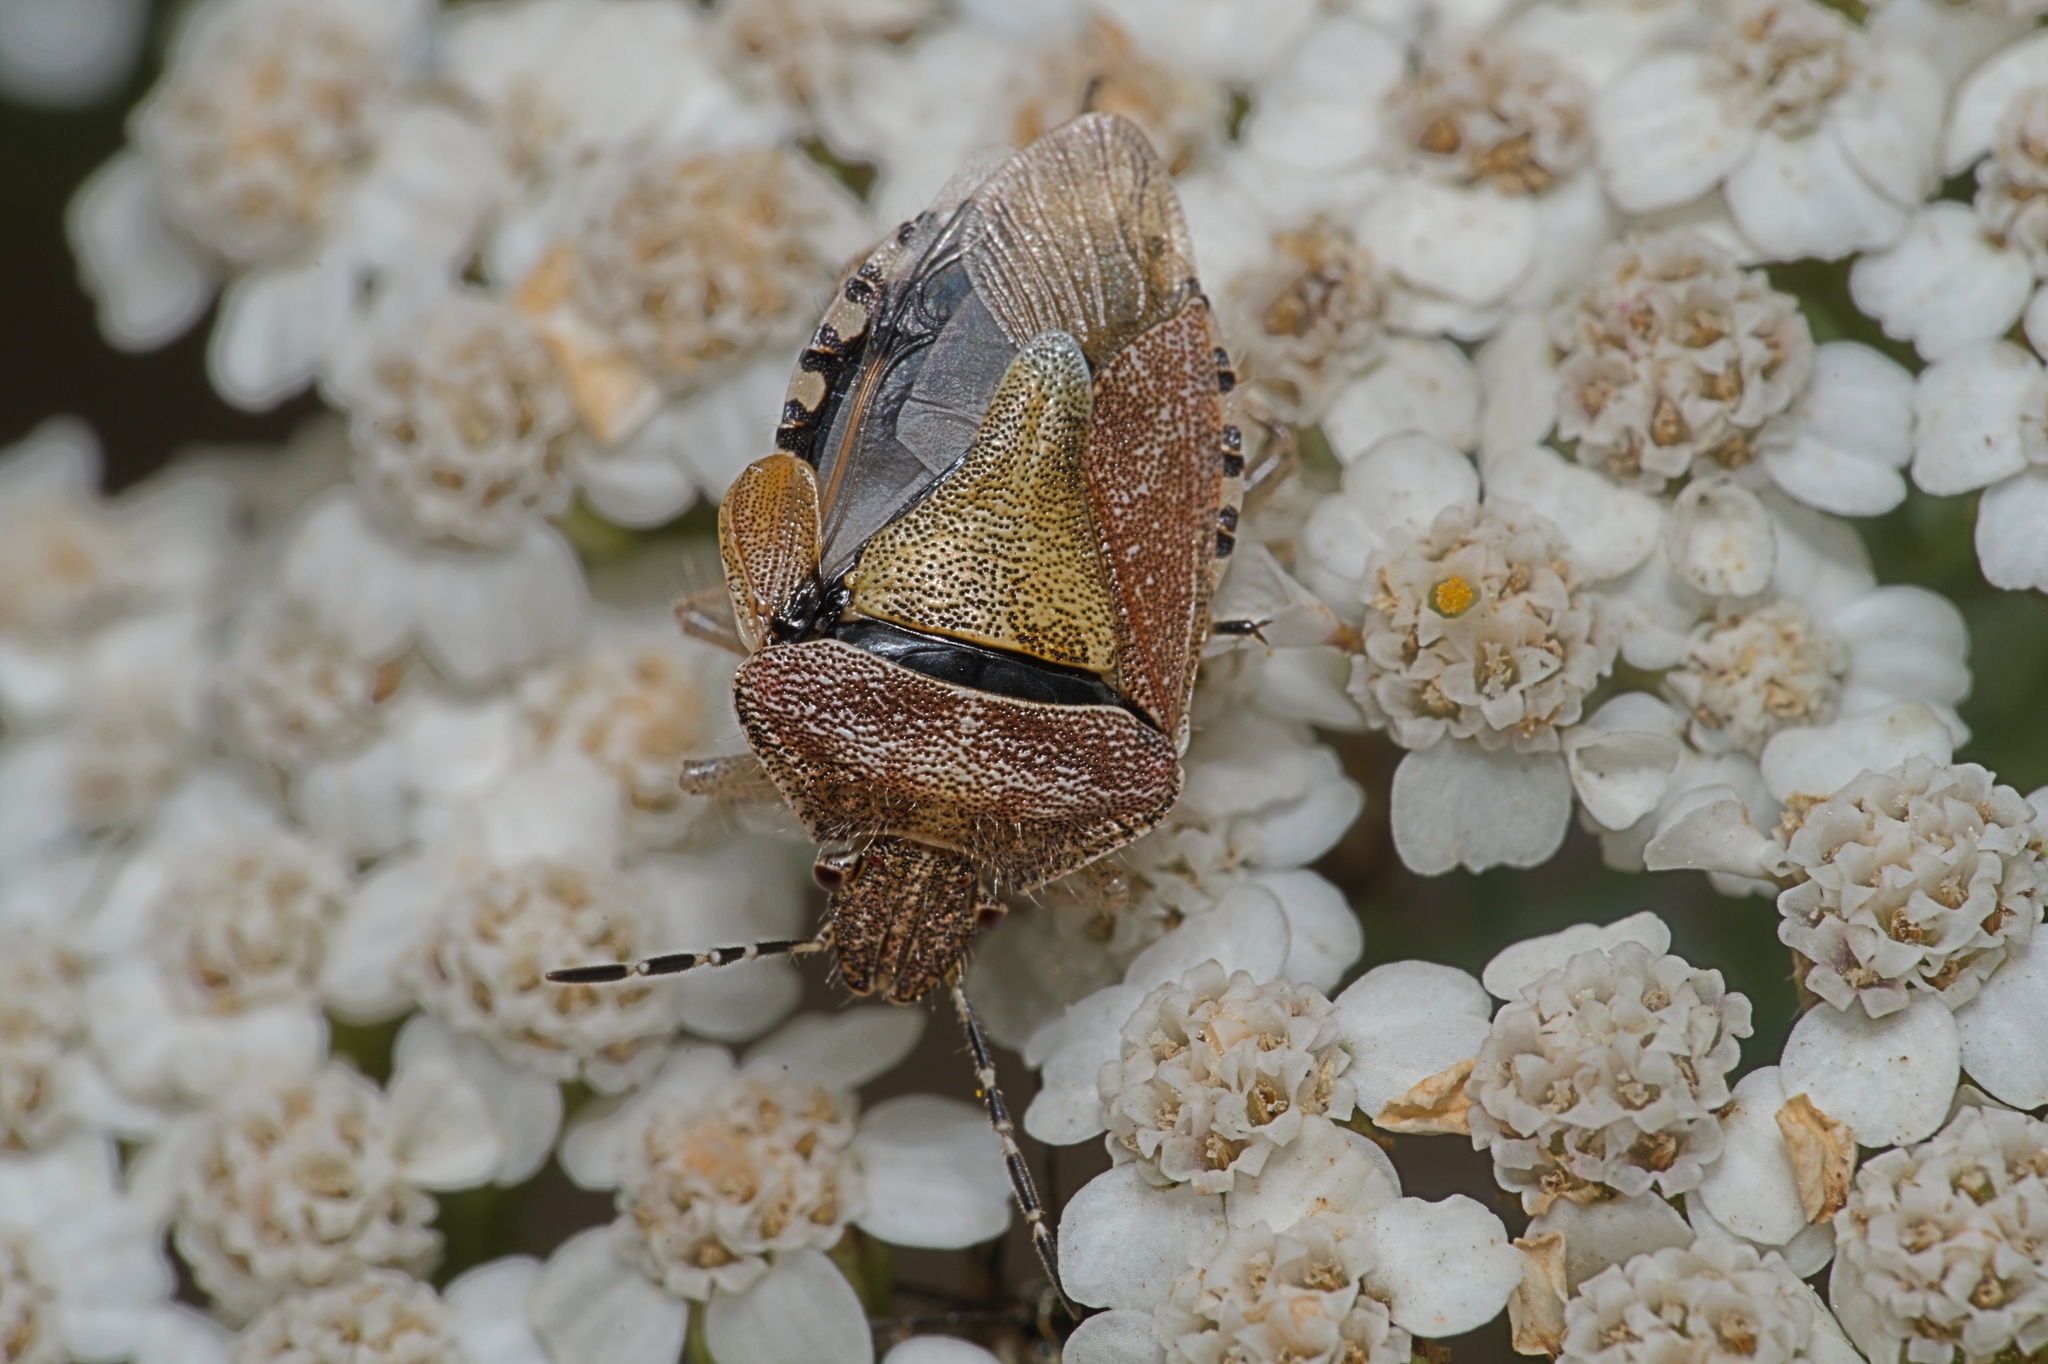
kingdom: Animalia
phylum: Arthropoda
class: Insecta
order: Hemiptera
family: Pentatomidae
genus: Dolycoris
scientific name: Dolycoris baccarum
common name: Sloe bug
